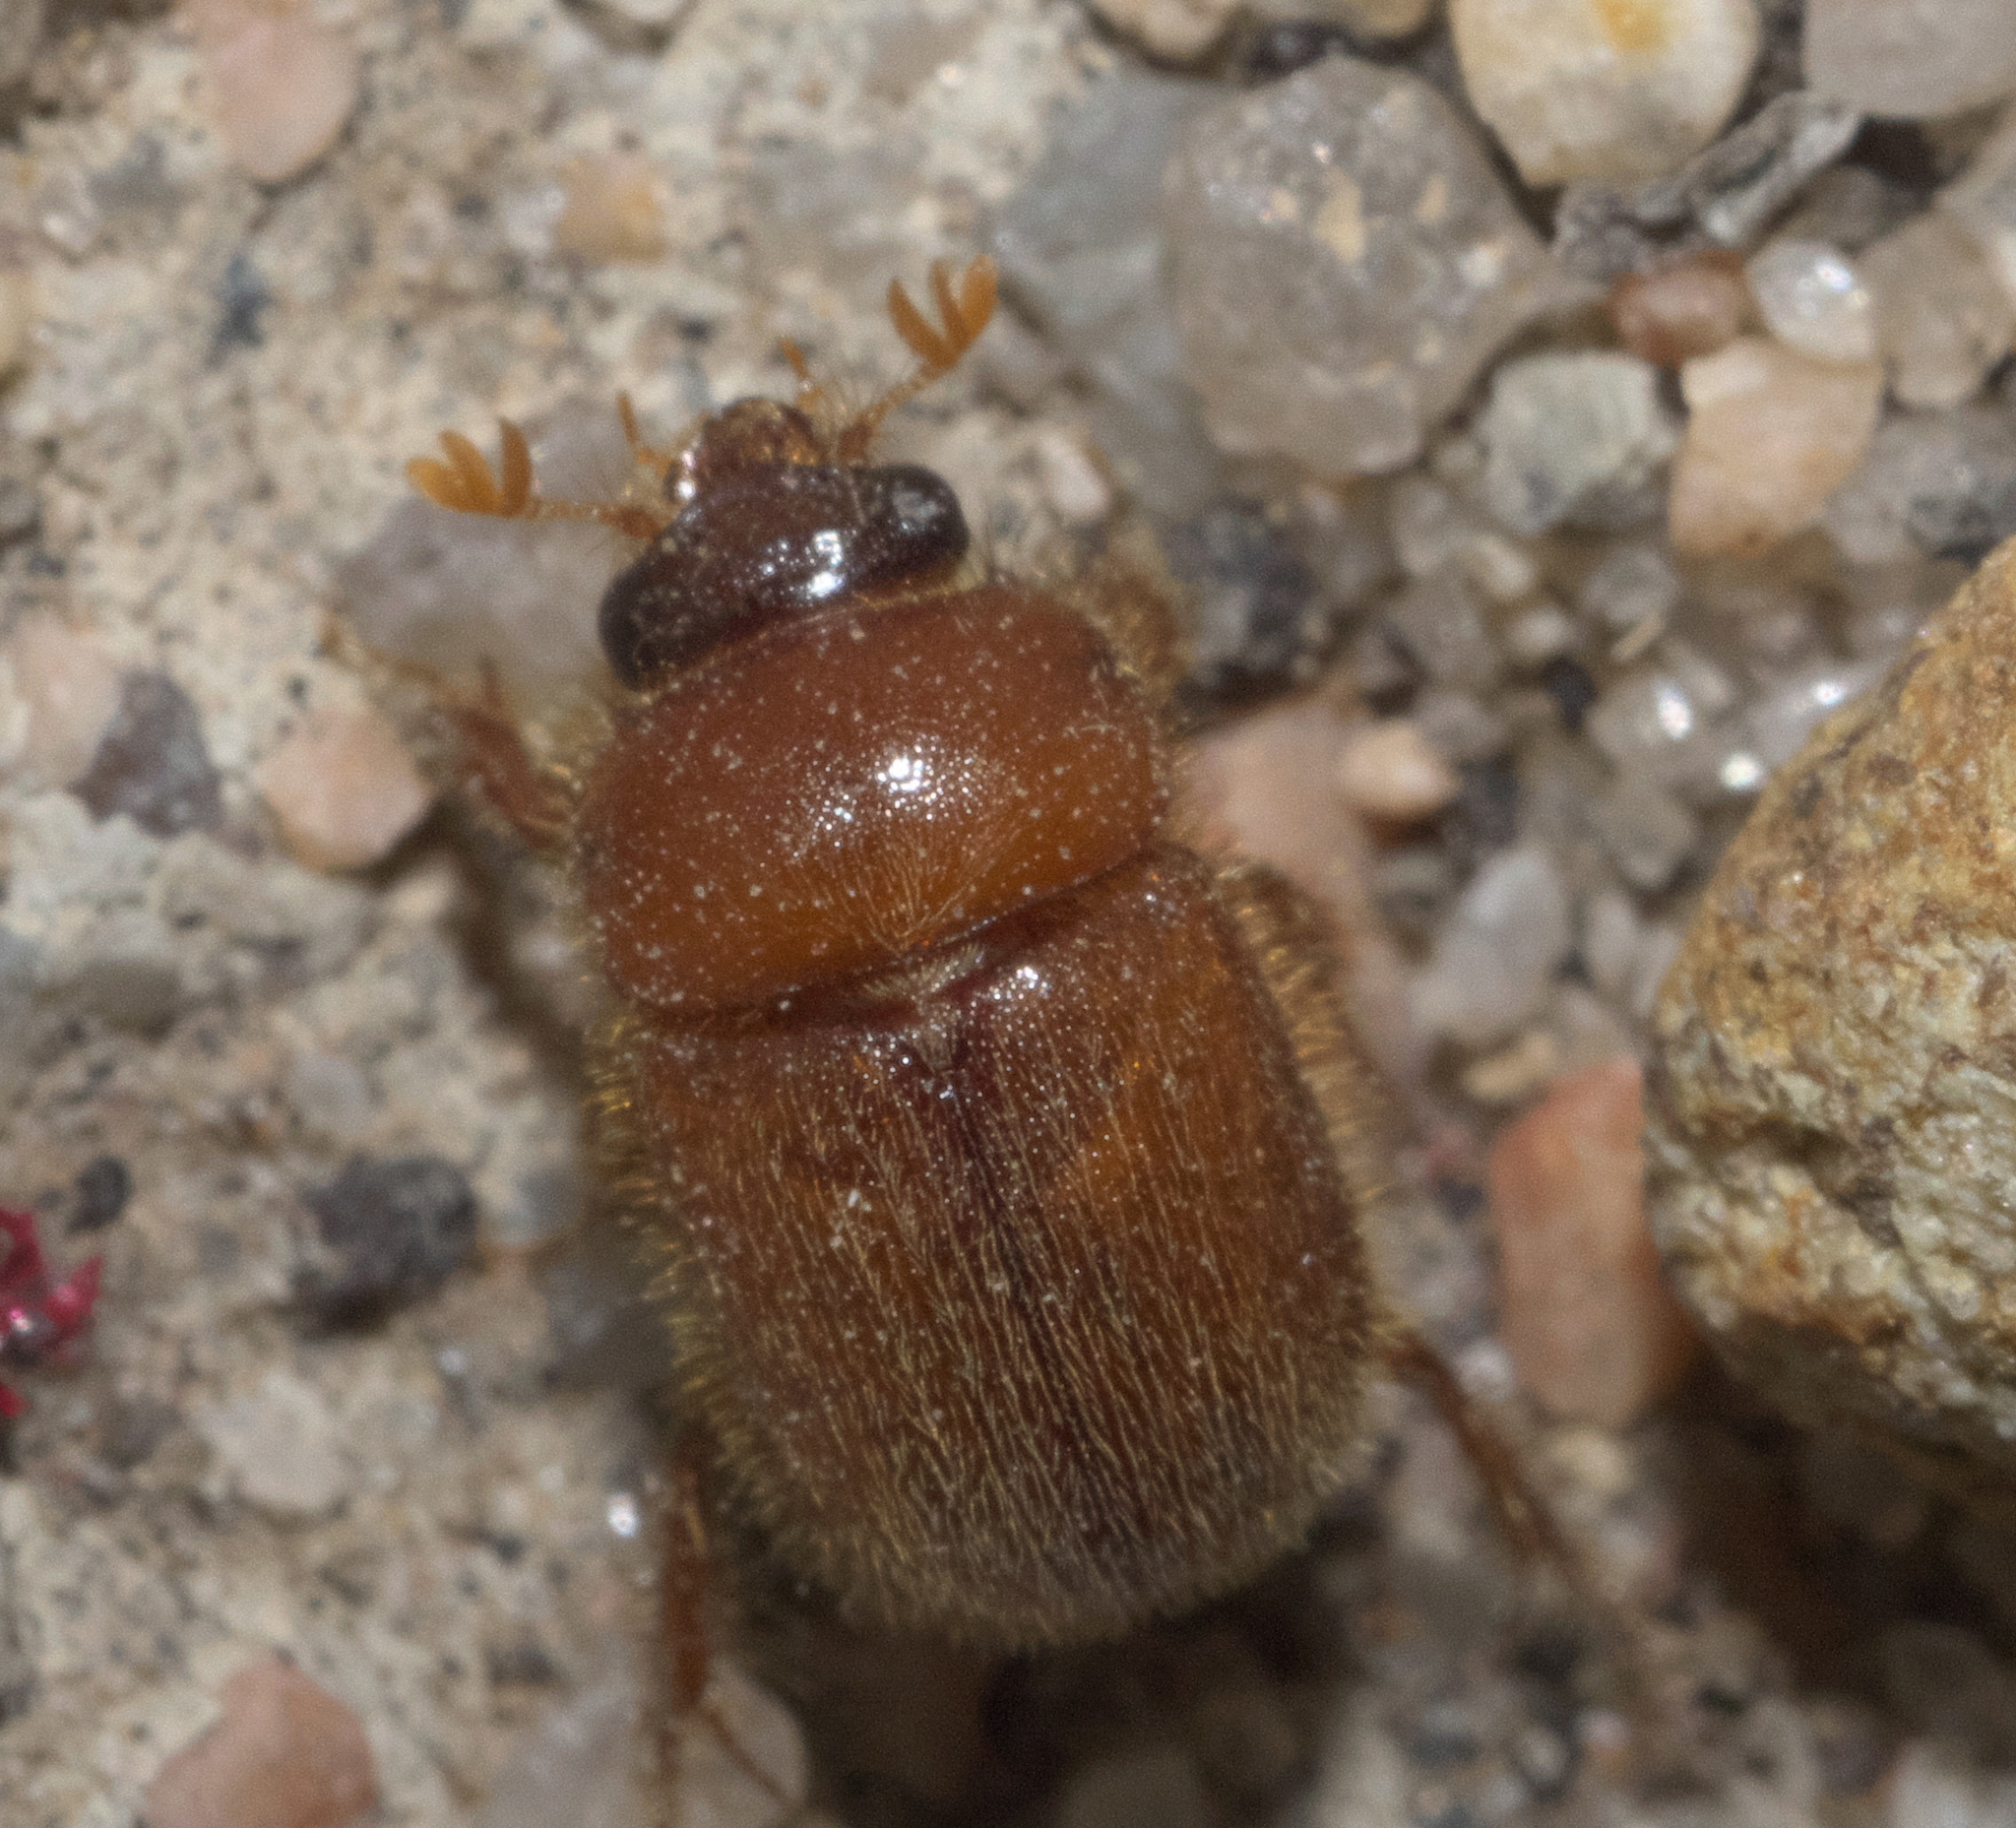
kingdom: Animalia
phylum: Arthropoda
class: Insecta
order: Coleoptera
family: Ochodaeidae
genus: Parochodaeus
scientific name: Parochodaeus duplex
